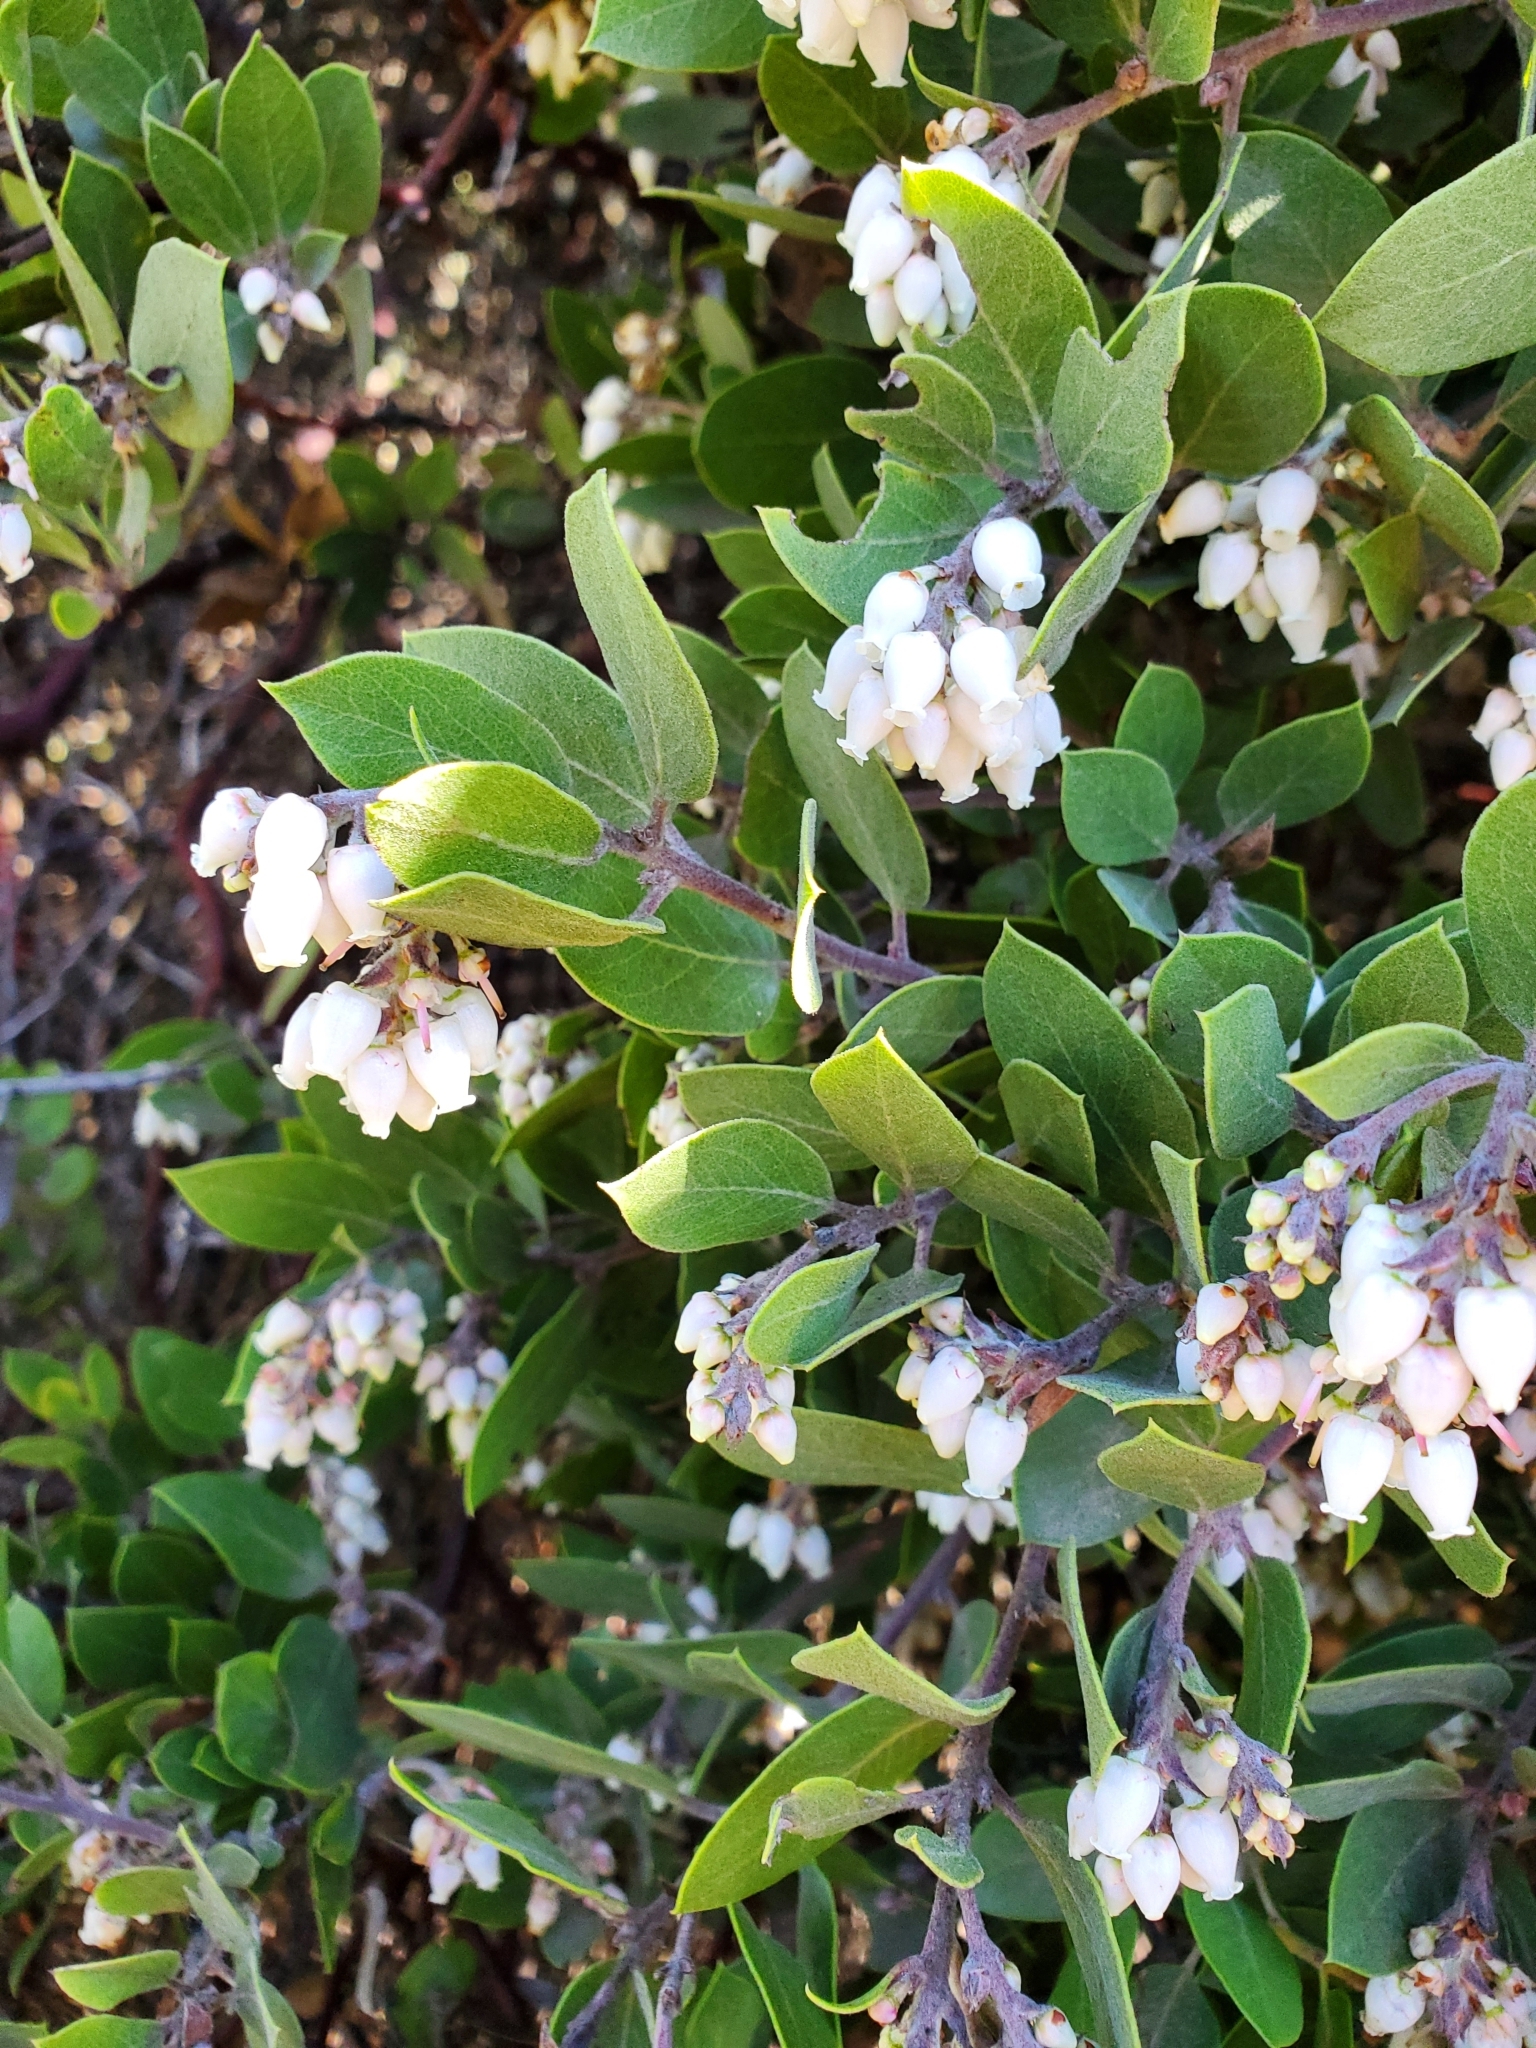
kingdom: Plantae
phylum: Tracheophyta
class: Magnoliopsida
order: Ericales
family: Ericaceae
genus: Arctostaphylos
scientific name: Arctostaphylos montana
